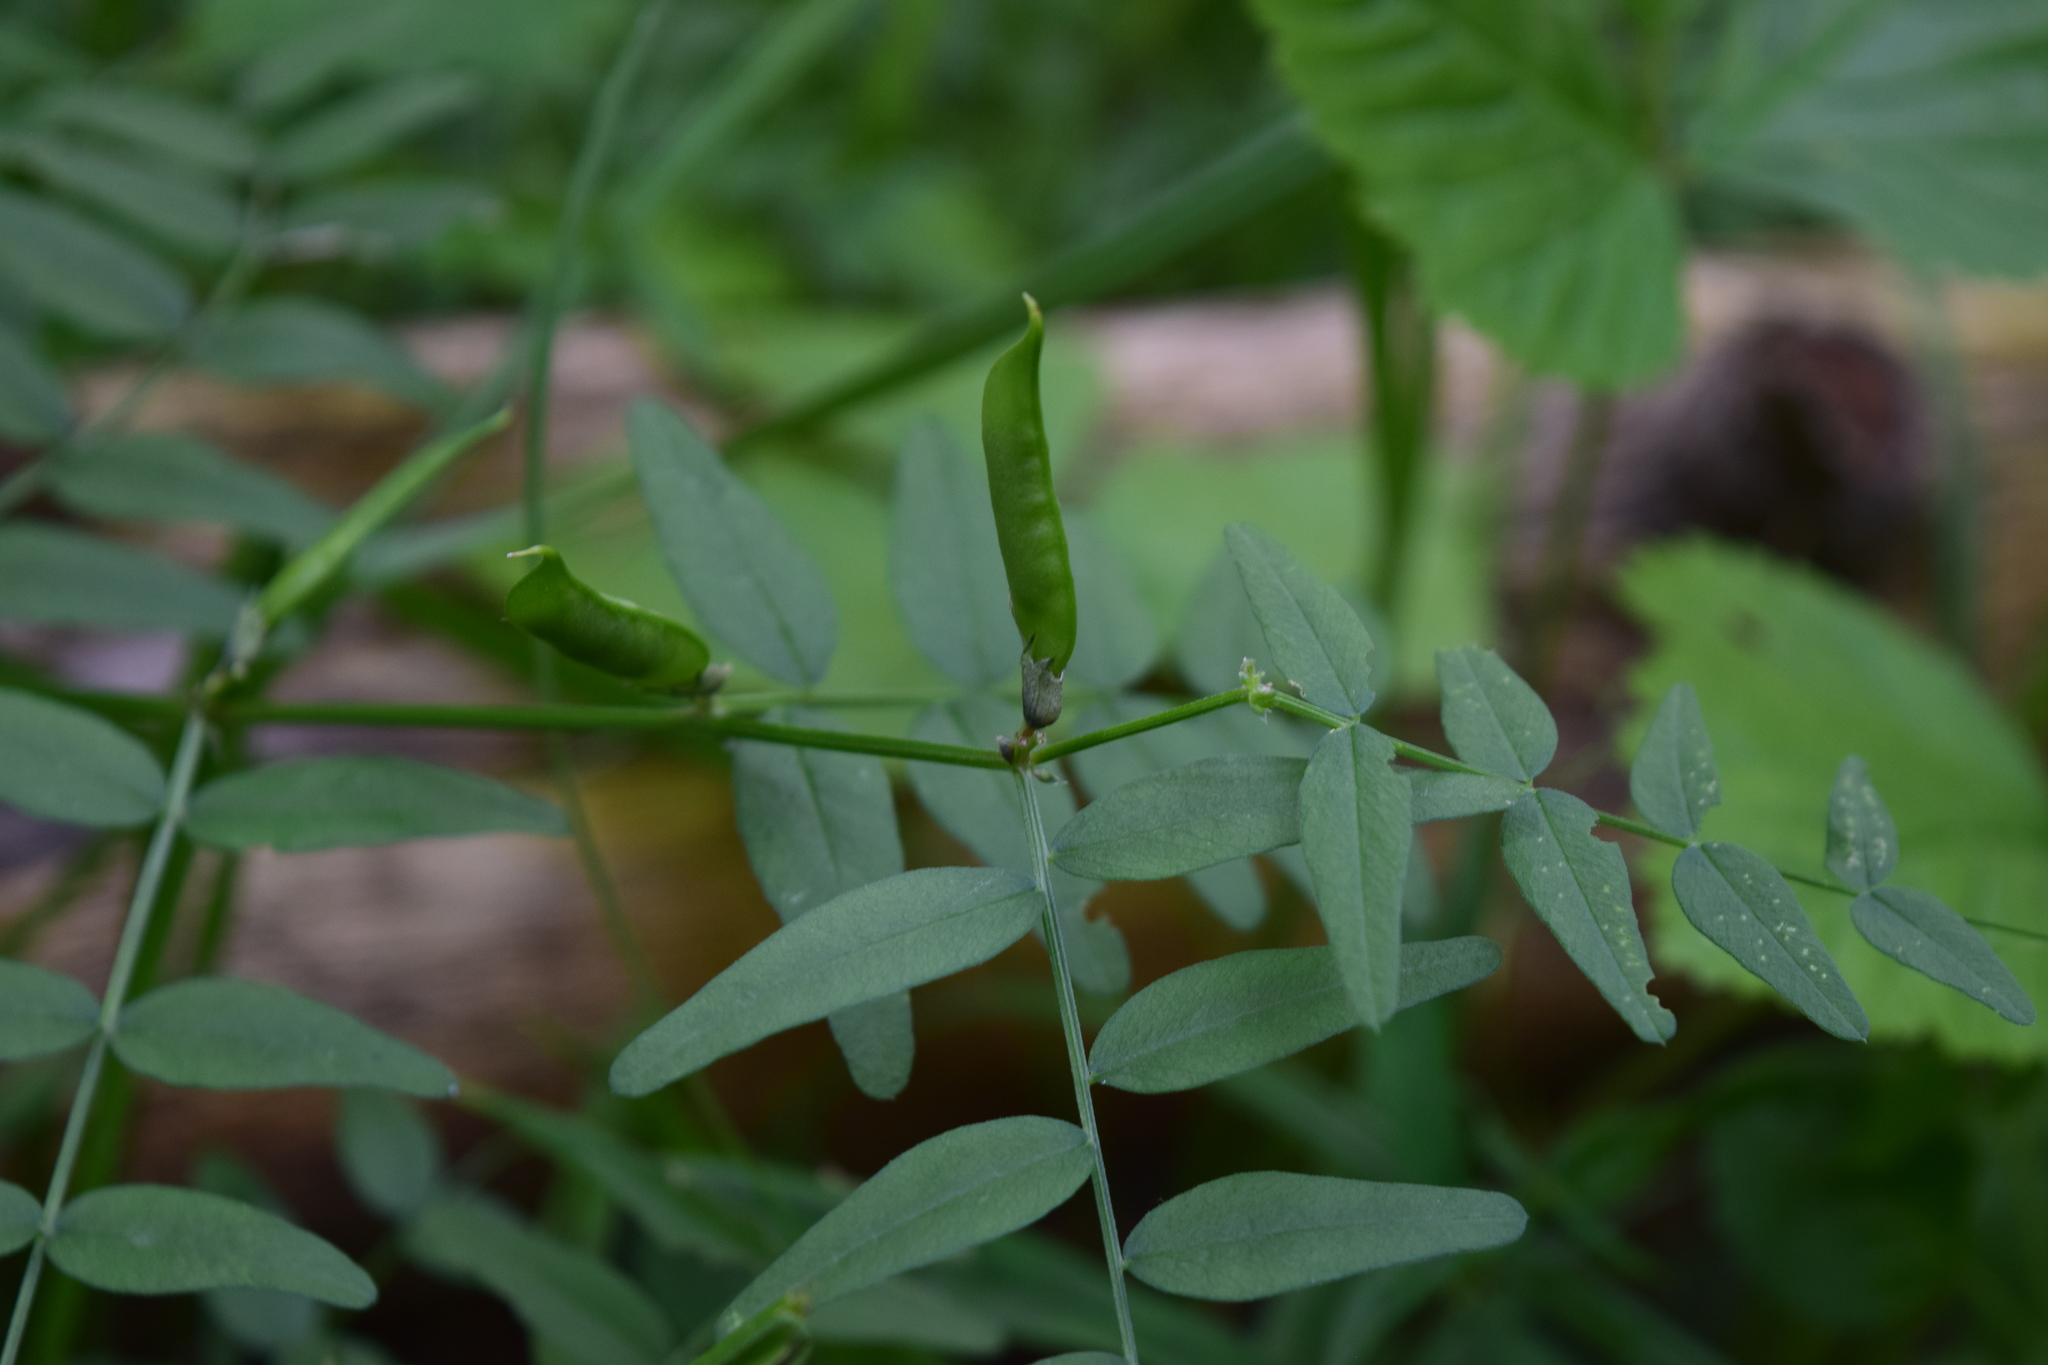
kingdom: Plantae
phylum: Tracheophyta
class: Magnoliopsida
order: Fabales
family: Fabaceae
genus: Vicia
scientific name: Vicia sepium
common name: Bush vetch
